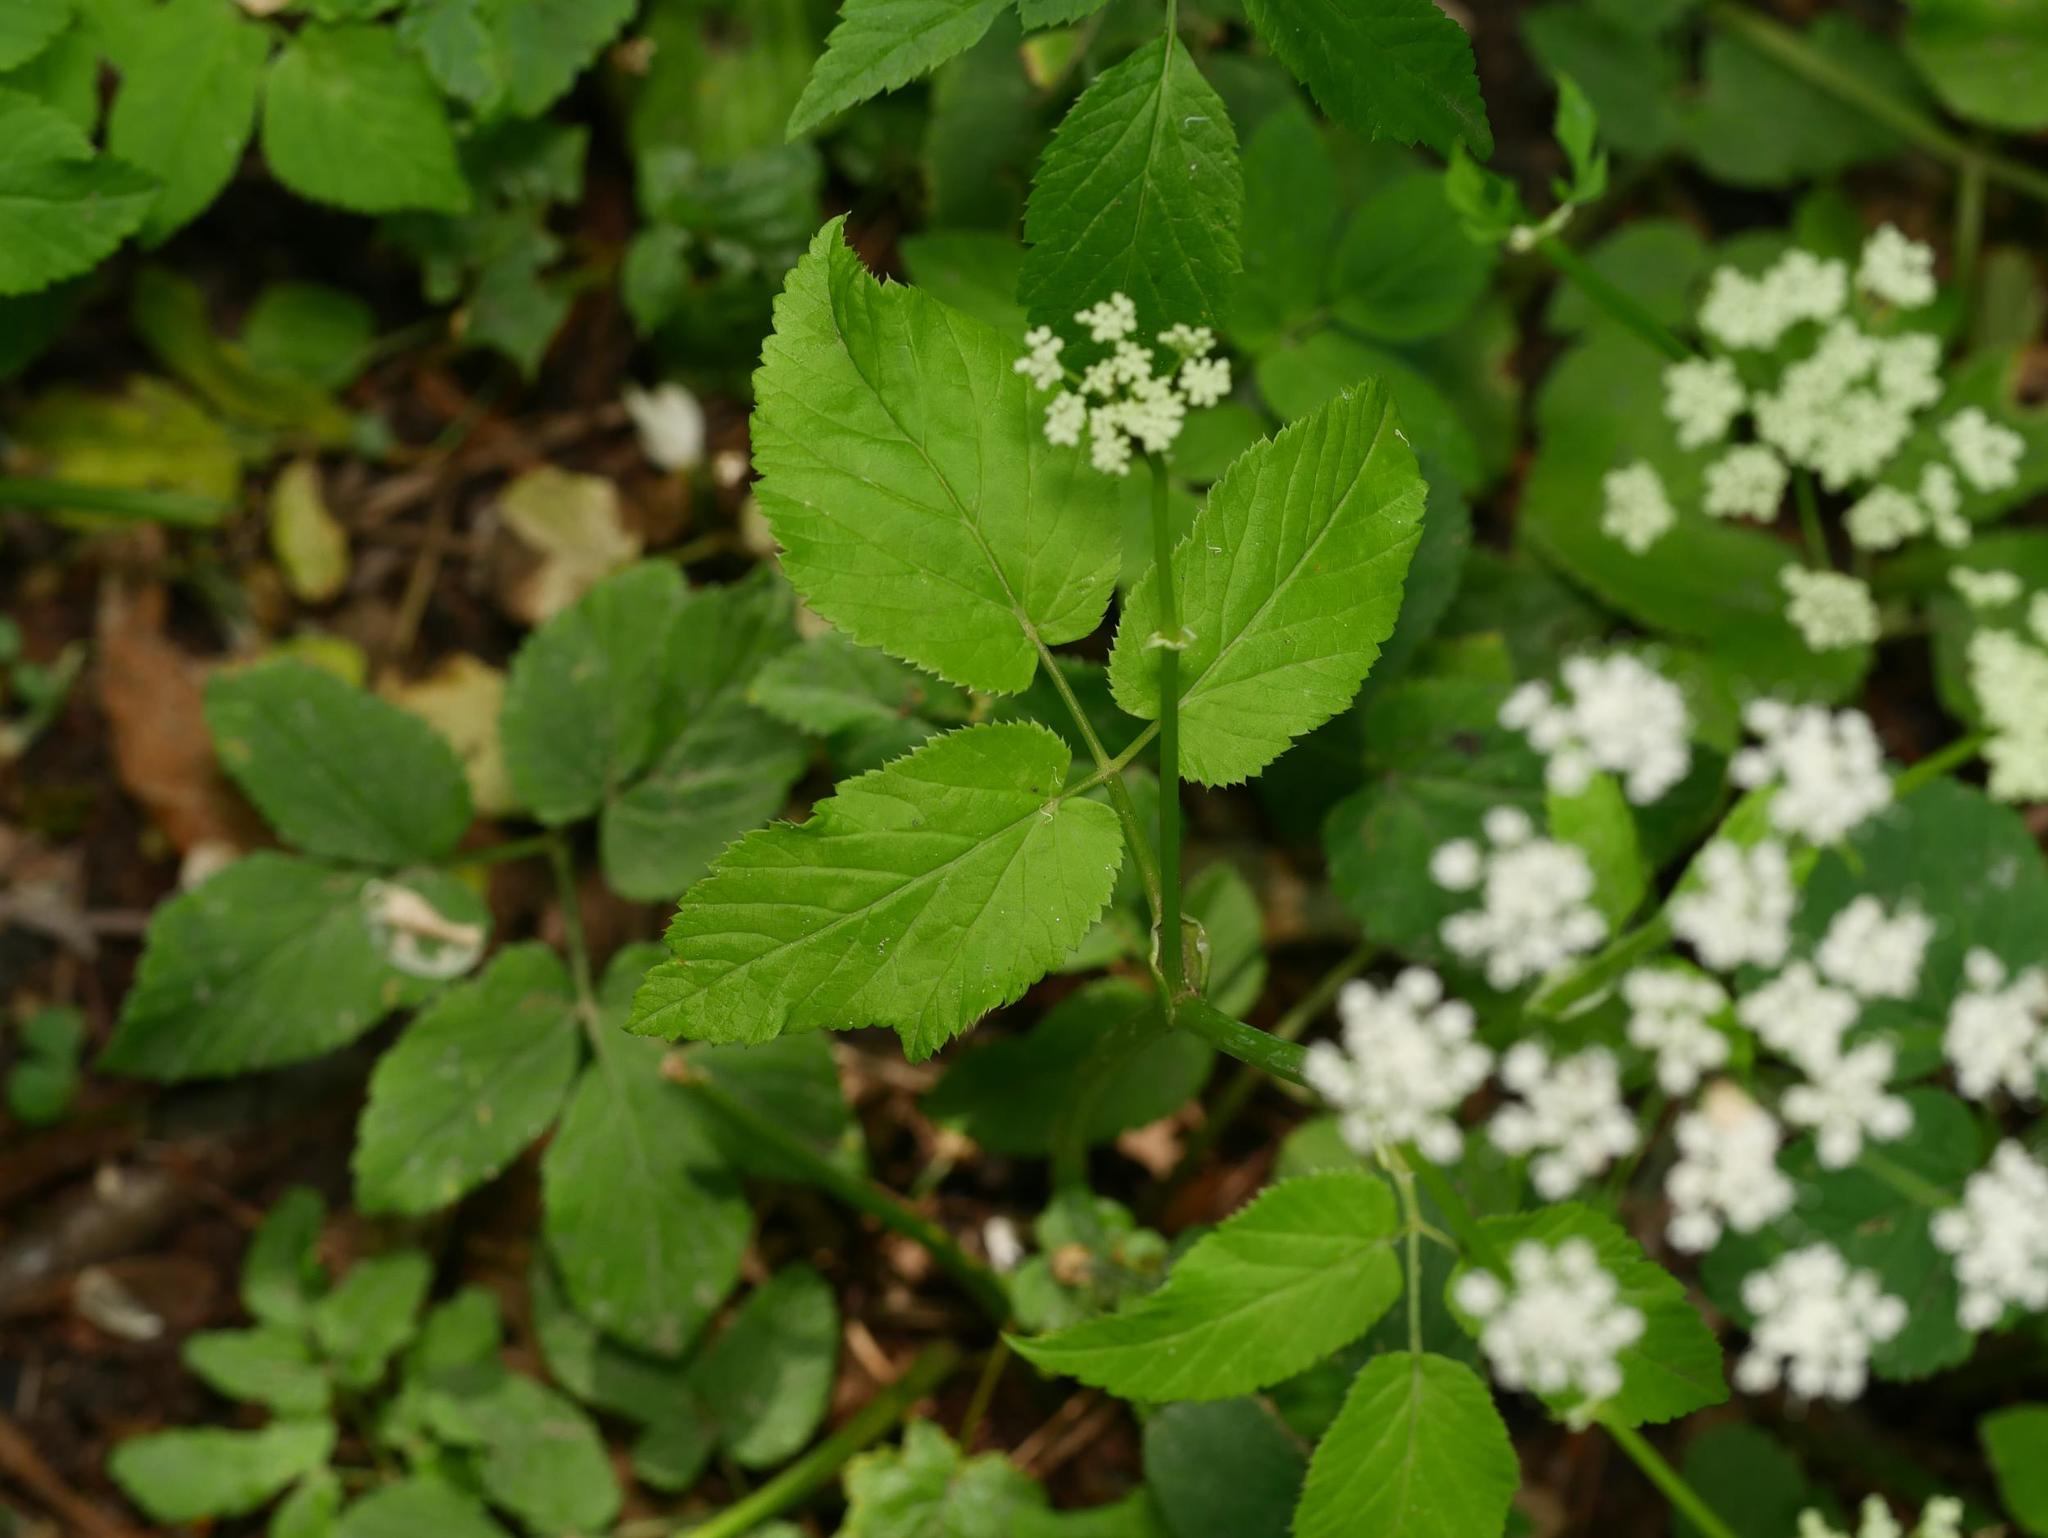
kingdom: Plantae
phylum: Tracheophyta
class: Magnoliopsida
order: Apiales
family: Apiaceae
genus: Aegopodium
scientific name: Aegopodium podagraria
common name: Ground-elder
